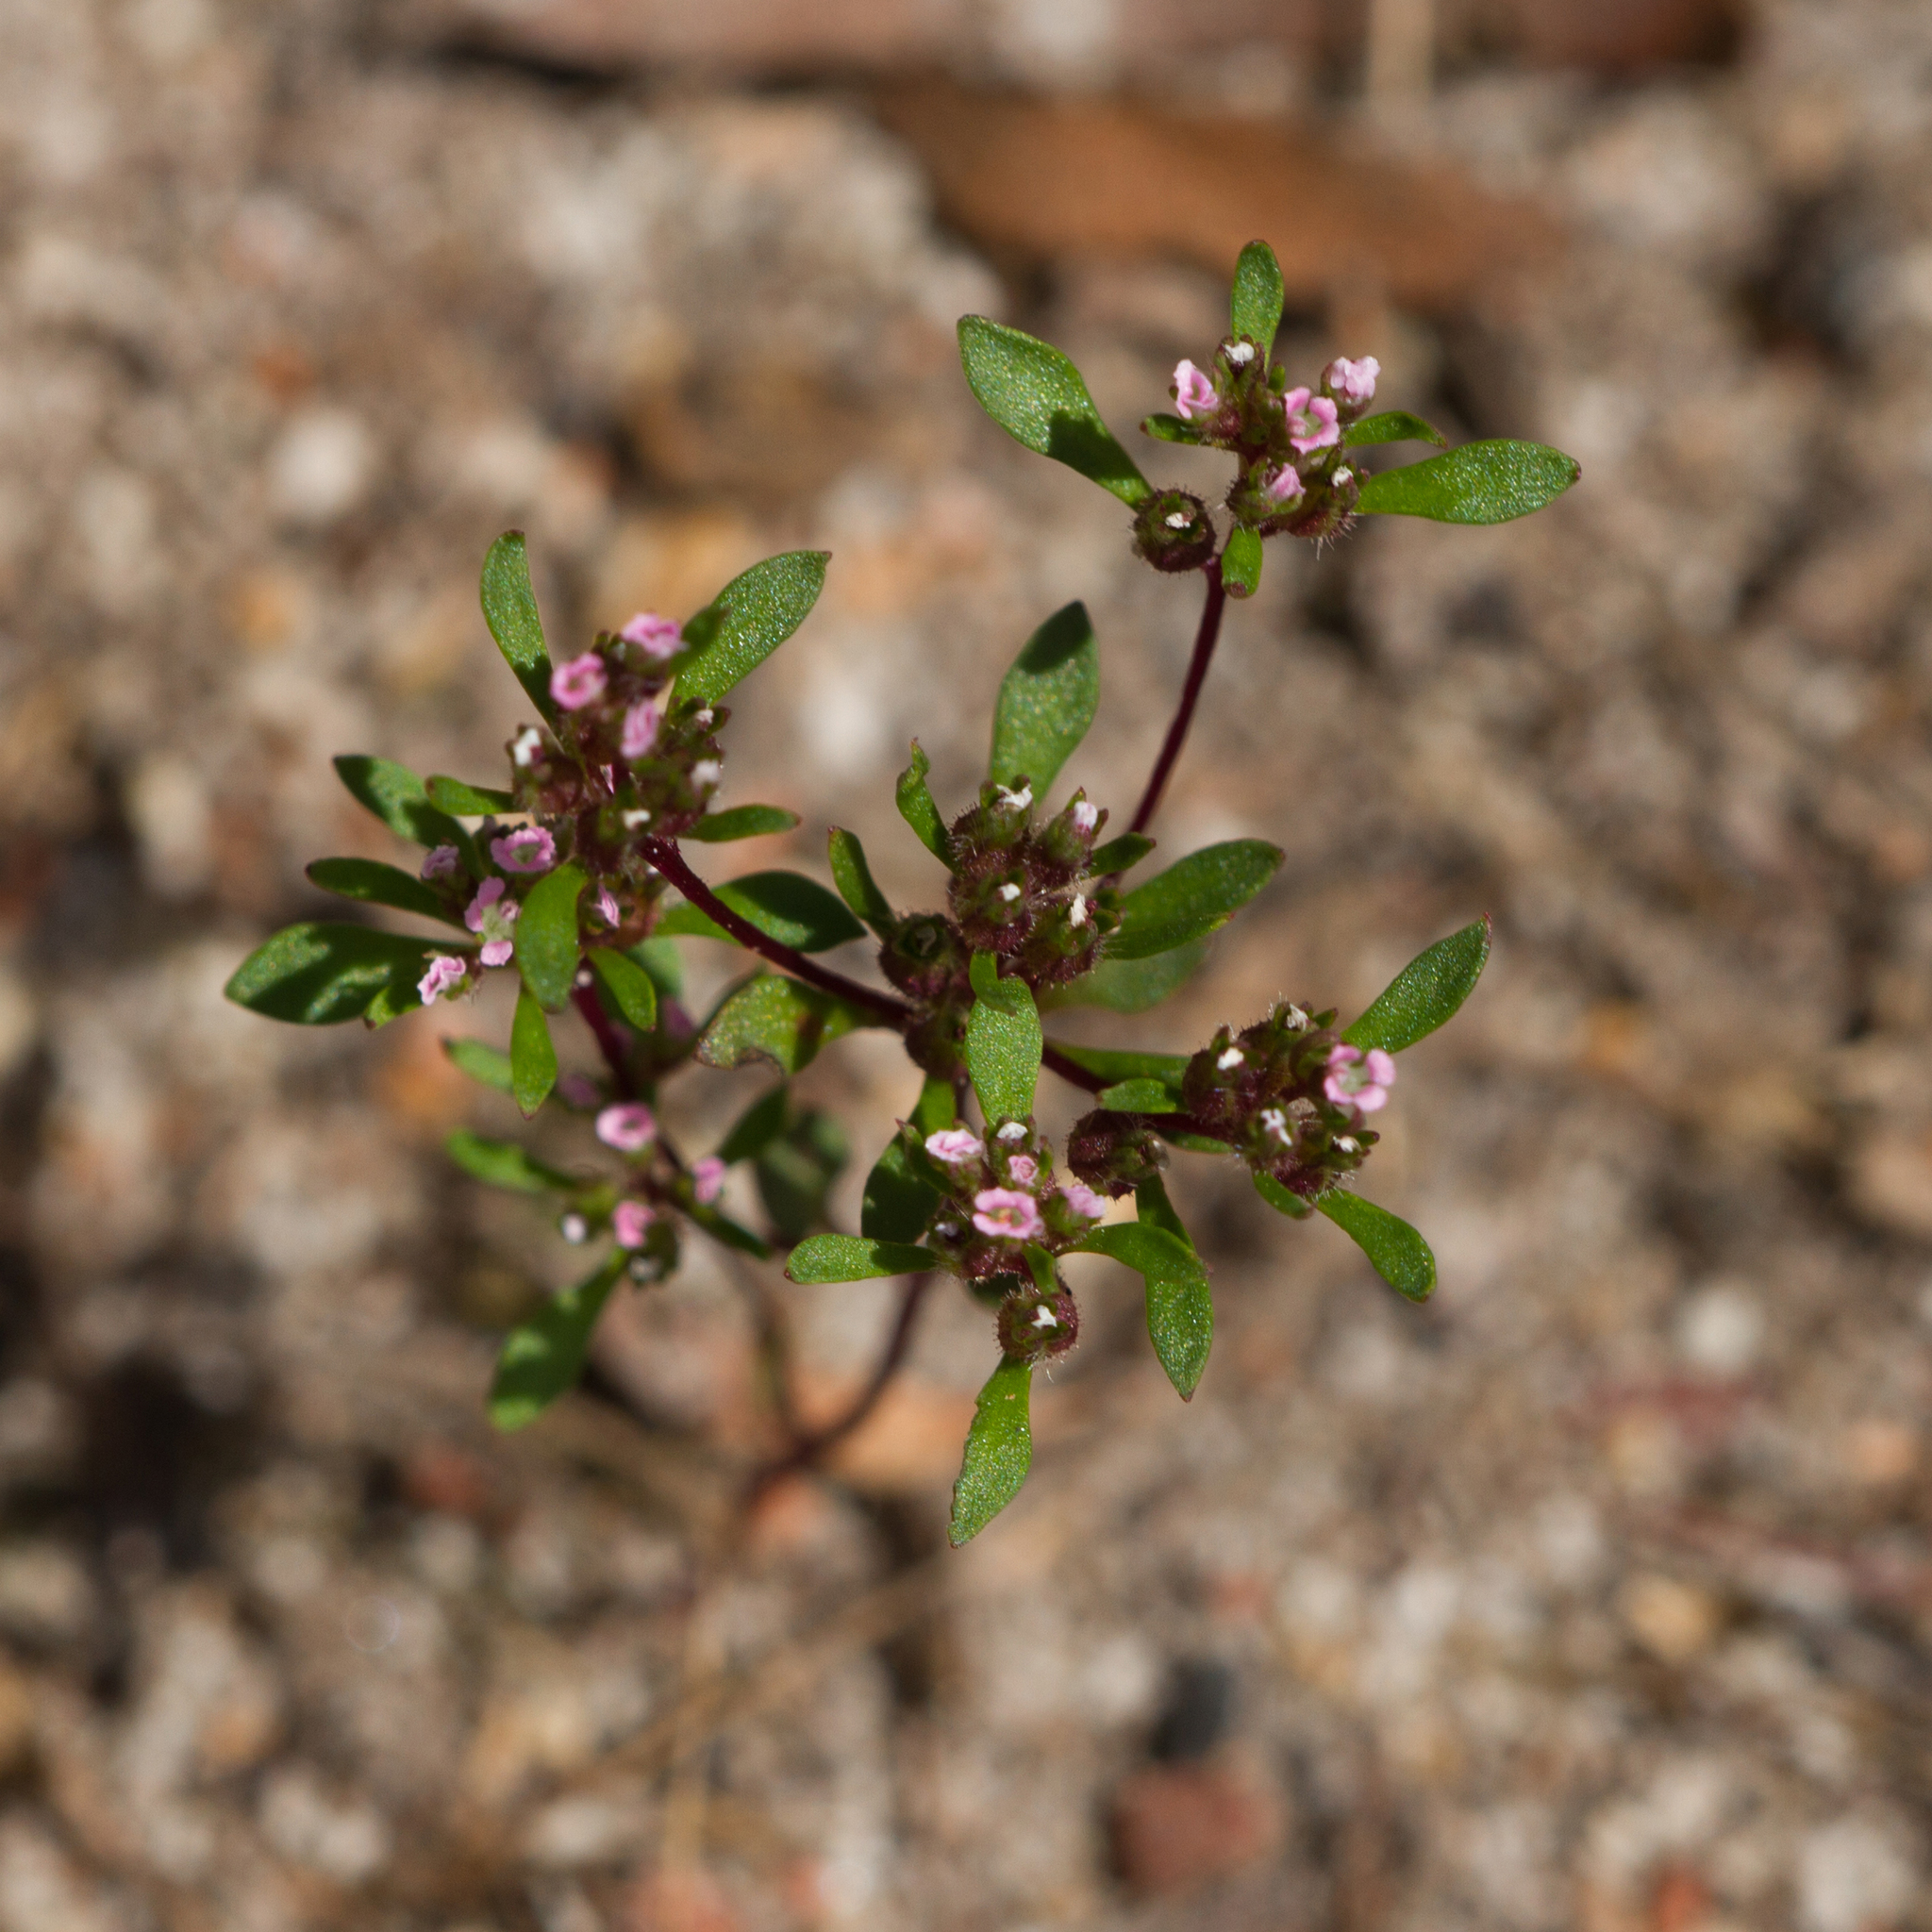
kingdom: Plantae
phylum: Tracheophyta
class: Magnoliopsida
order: Asterales
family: Stylidiaceae
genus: Levenhookia
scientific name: Levenhookia pusilla
